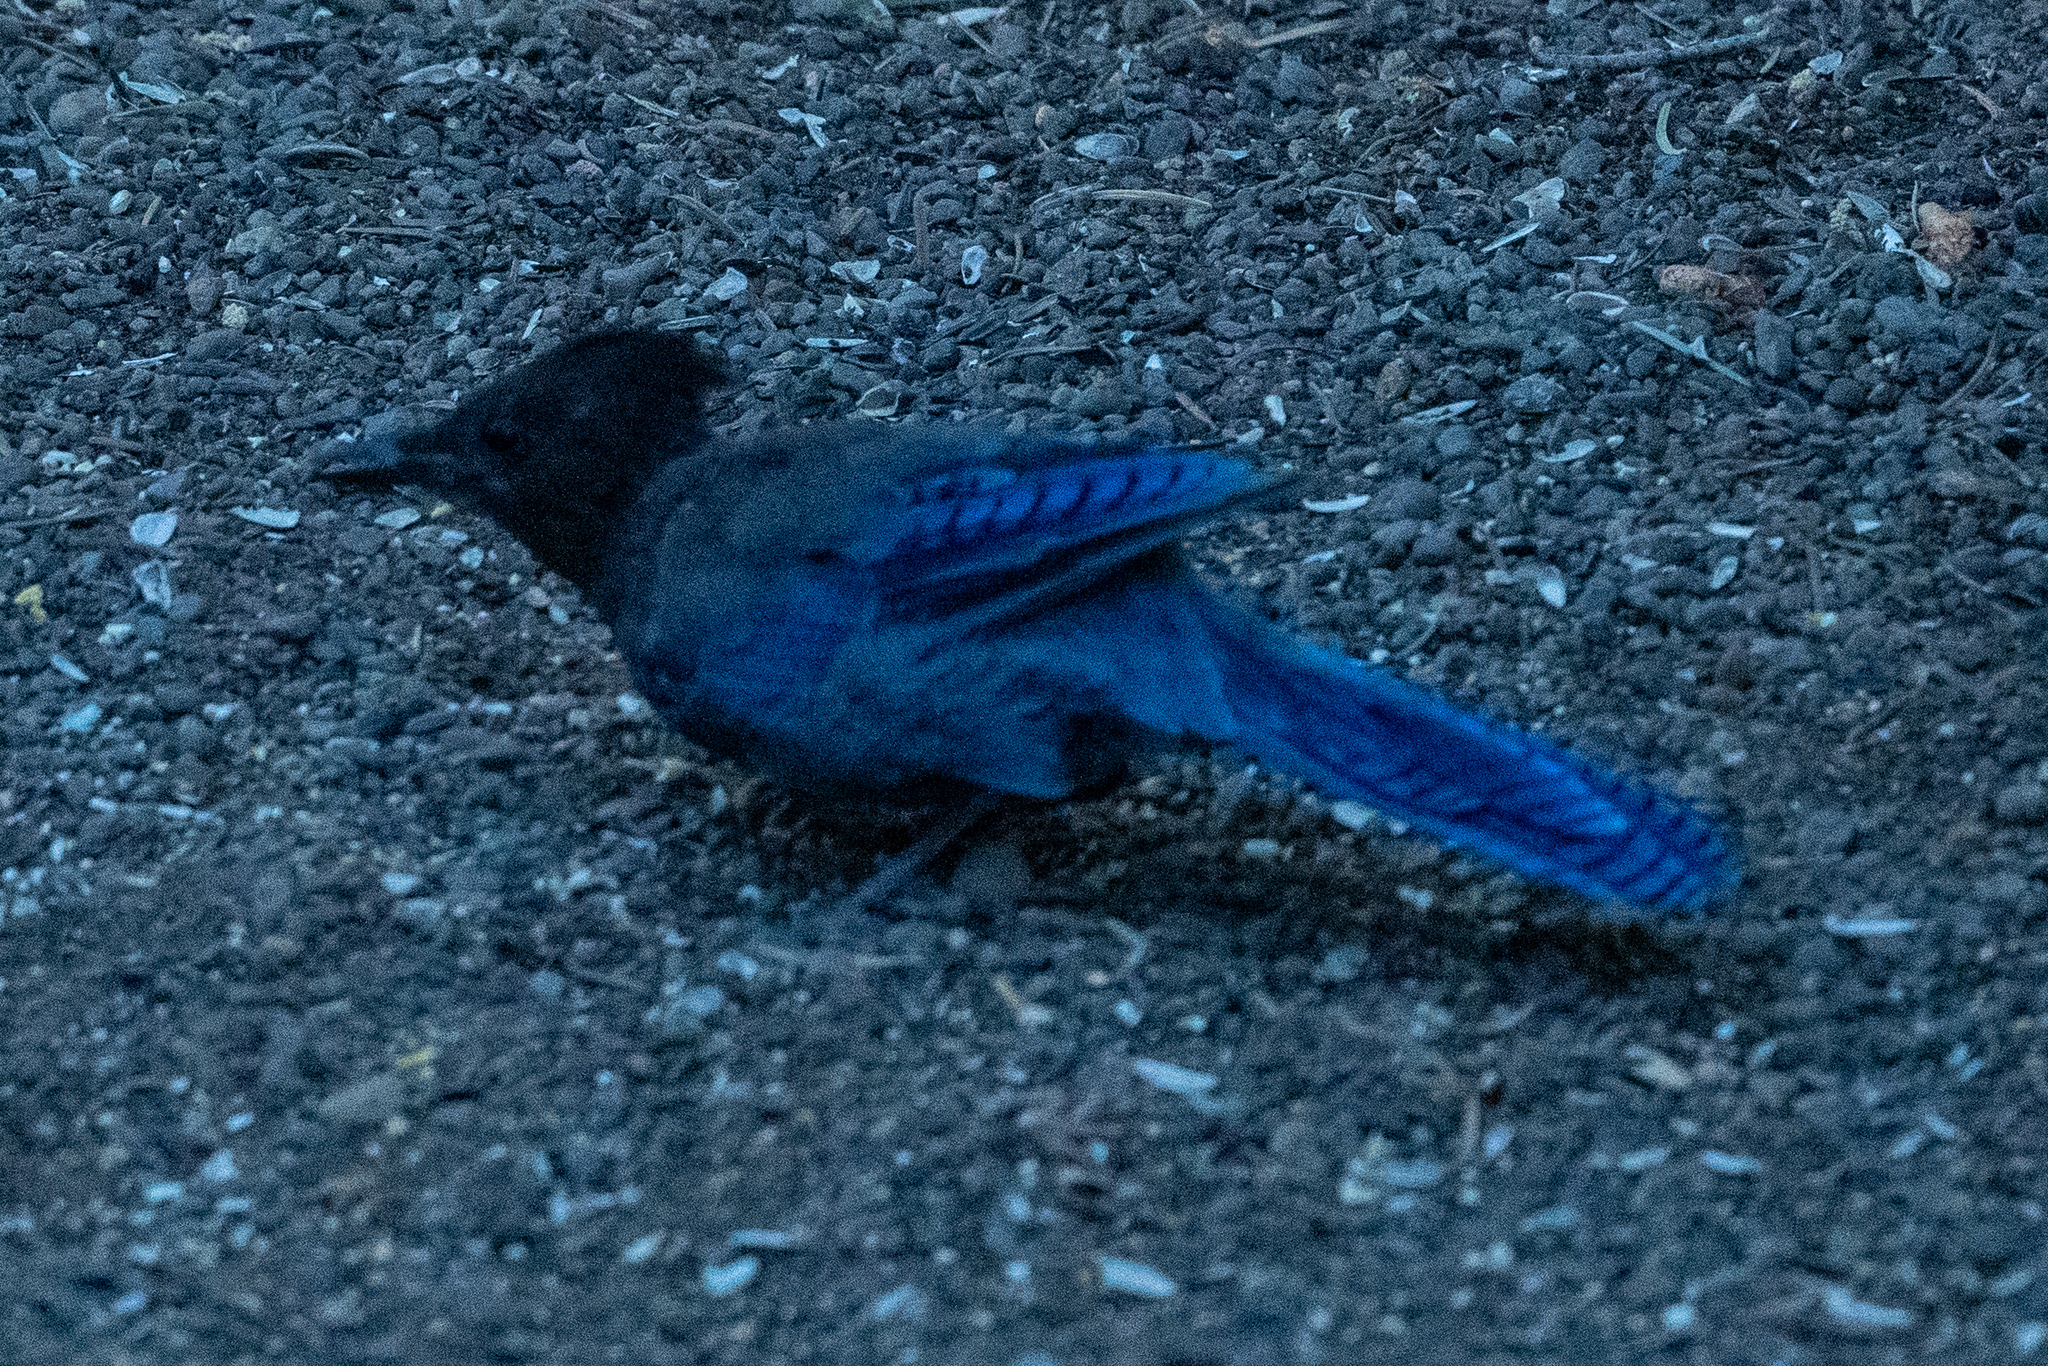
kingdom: Animalia
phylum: Chordata
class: Aves
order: Passeriformes
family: Corvidae
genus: Cyanocitta
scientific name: Cyanocitta stelleri
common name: Steller's jay
